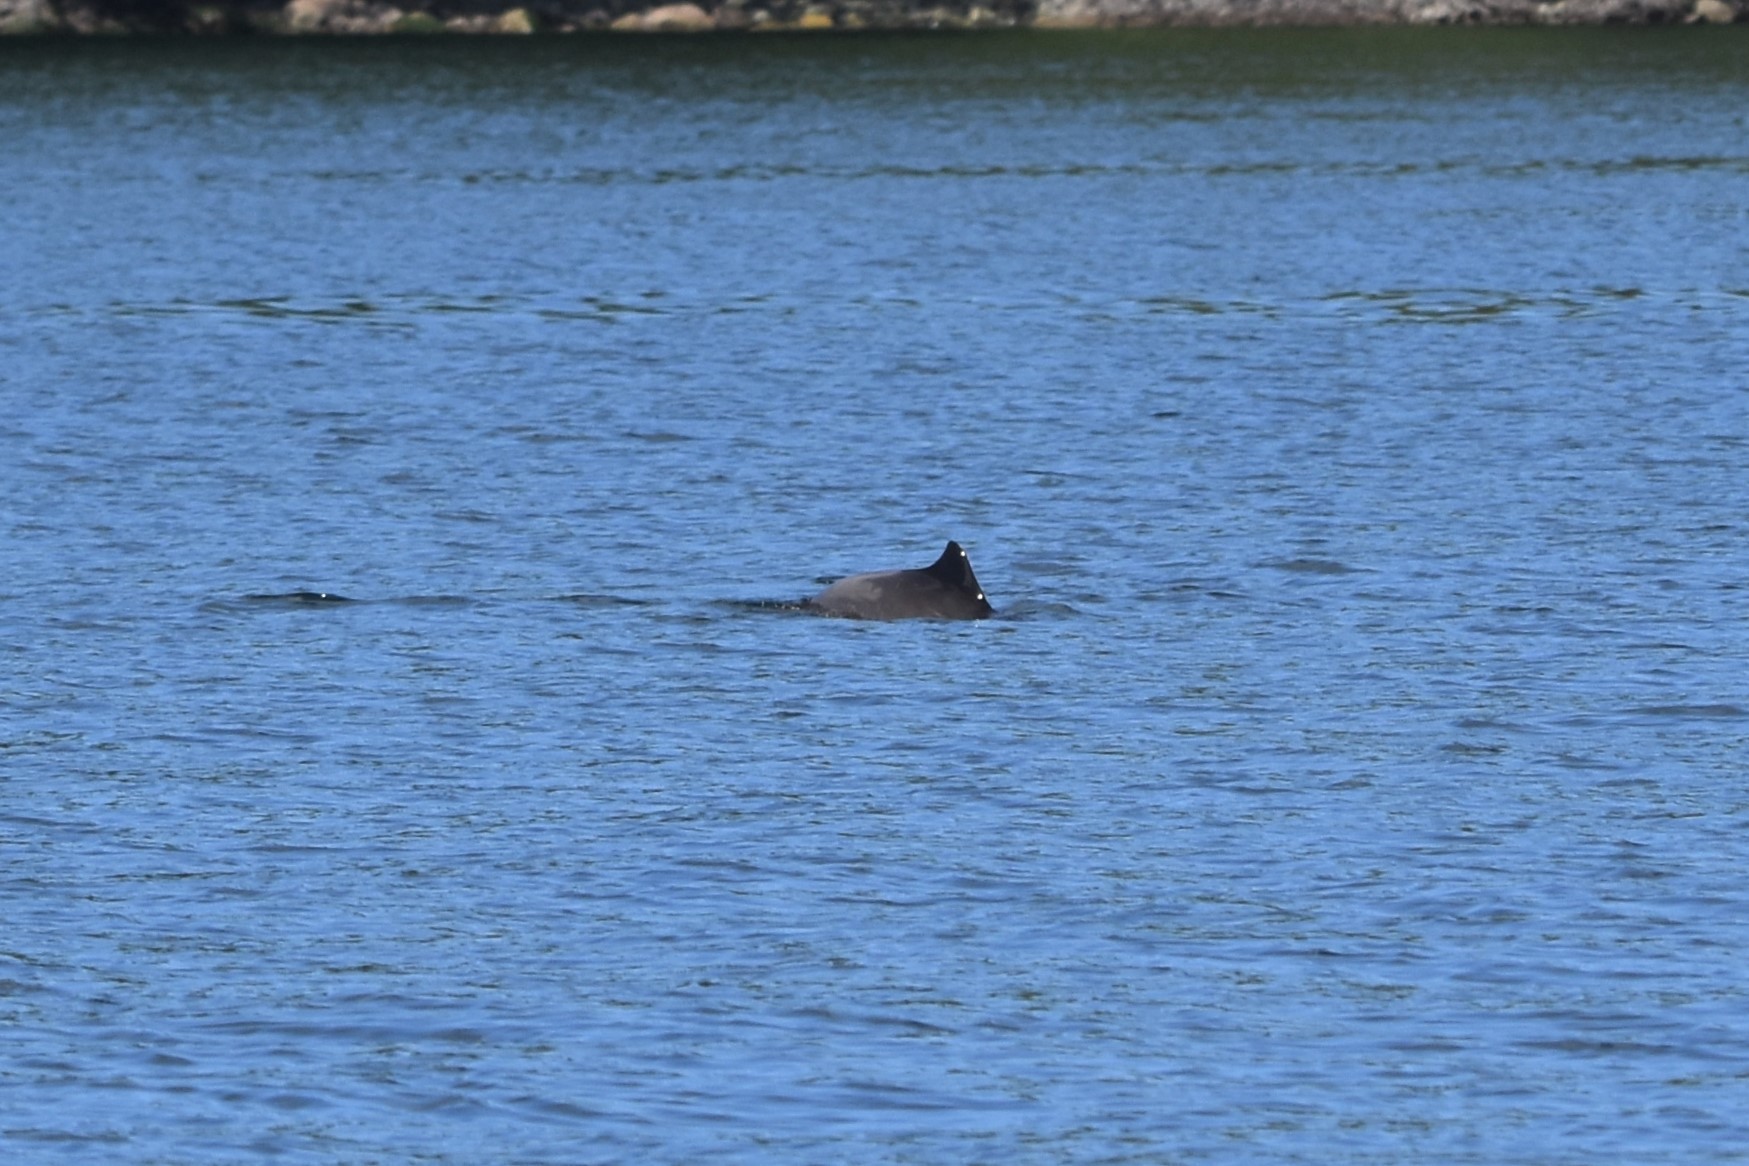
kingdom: Animalia
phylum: Chordata
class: Mammalia
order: Cetacea
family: Phocoenidae
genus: Phocoena
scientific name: Phocoena phocoena
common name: Harbor porpoise
